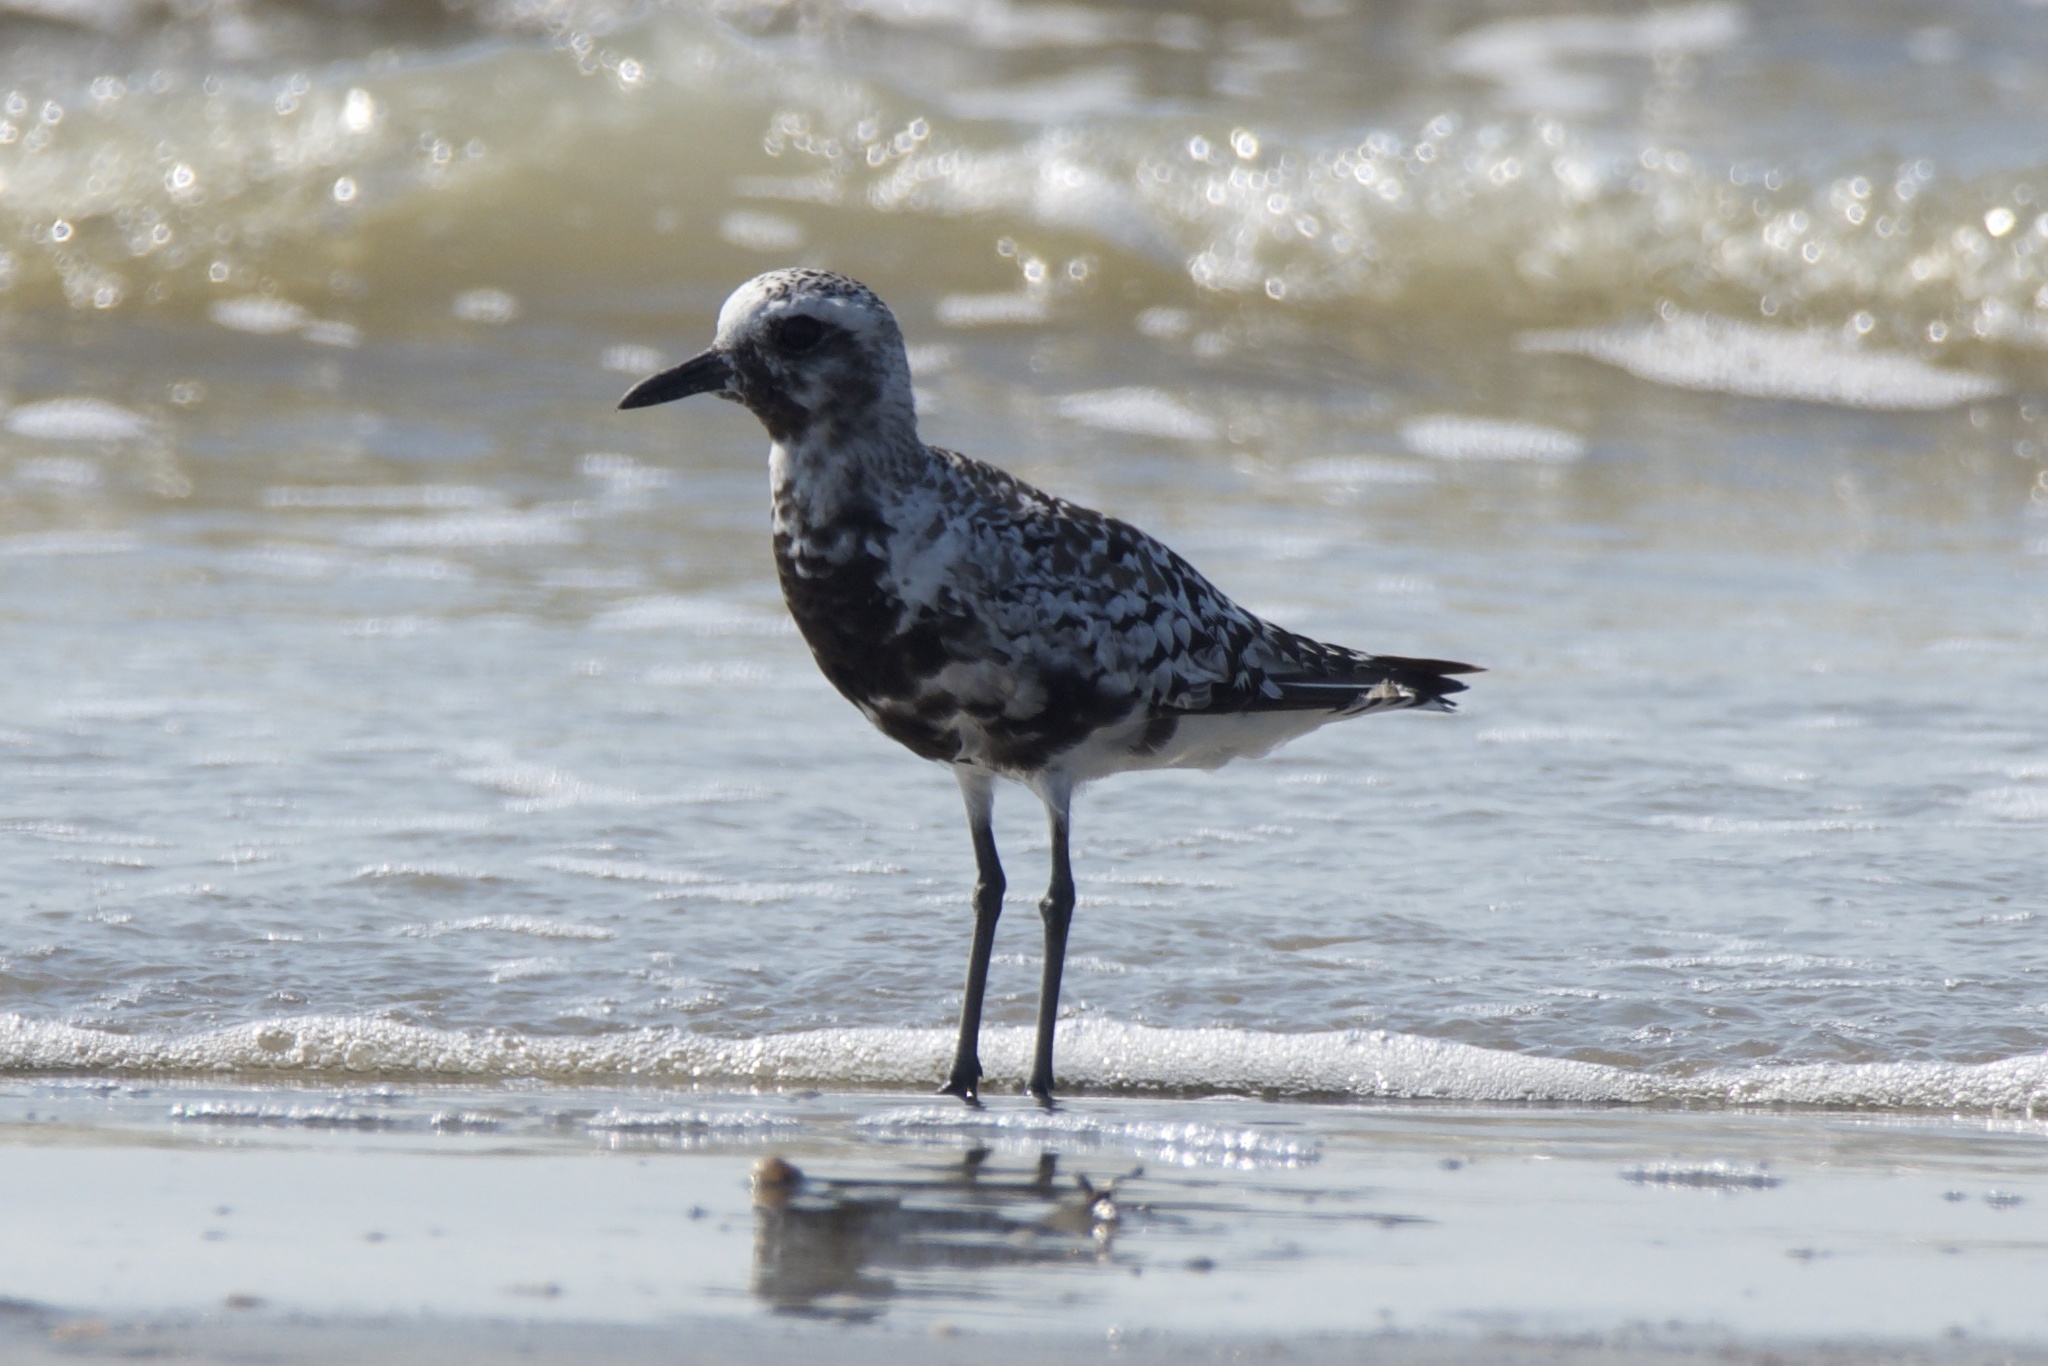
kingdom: Animalia
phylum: Chordata
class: Aves
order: Charadriiformes
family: Charadriidae
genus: Pluvialis
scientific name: Pluvialis squatarola
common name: Grey plover
